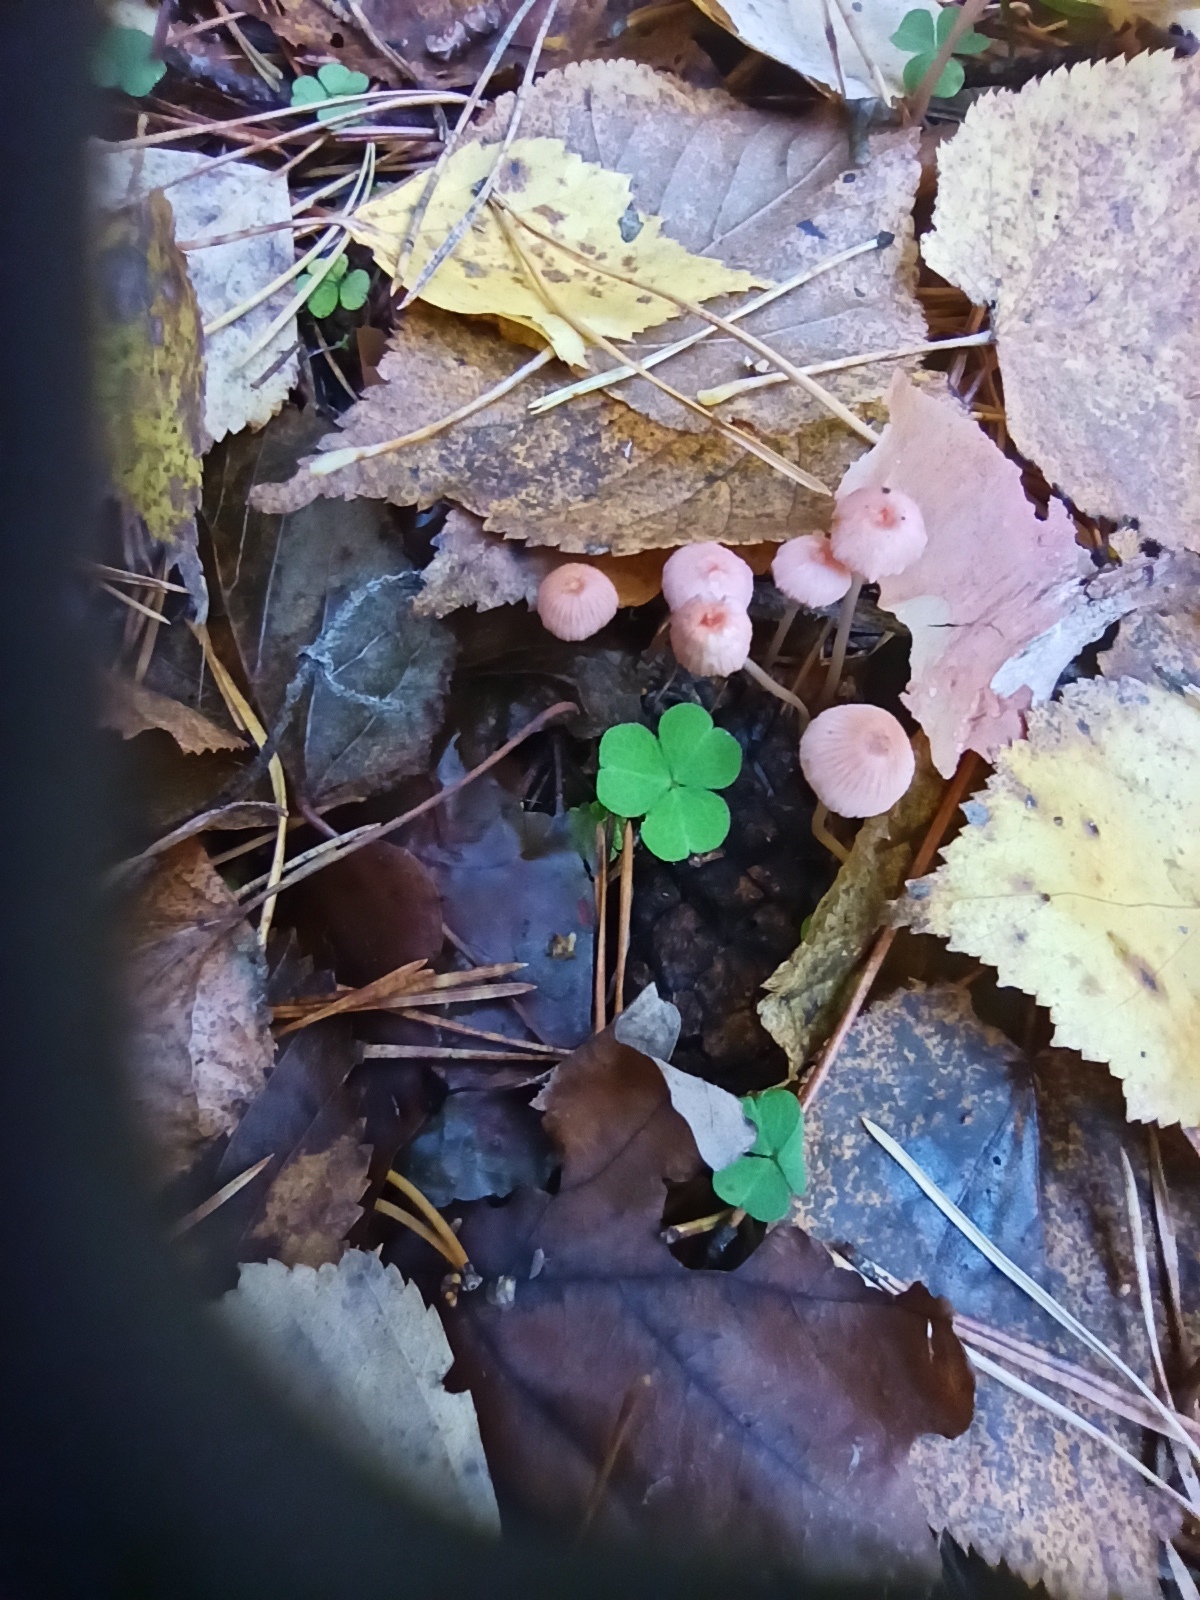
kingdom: Fungi
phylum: Basidiomycota
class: Agaricomycetes
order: Agaricales
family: Mycenaceae
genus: Mycena
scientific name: Mycena rosella
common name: Pink bonnet
